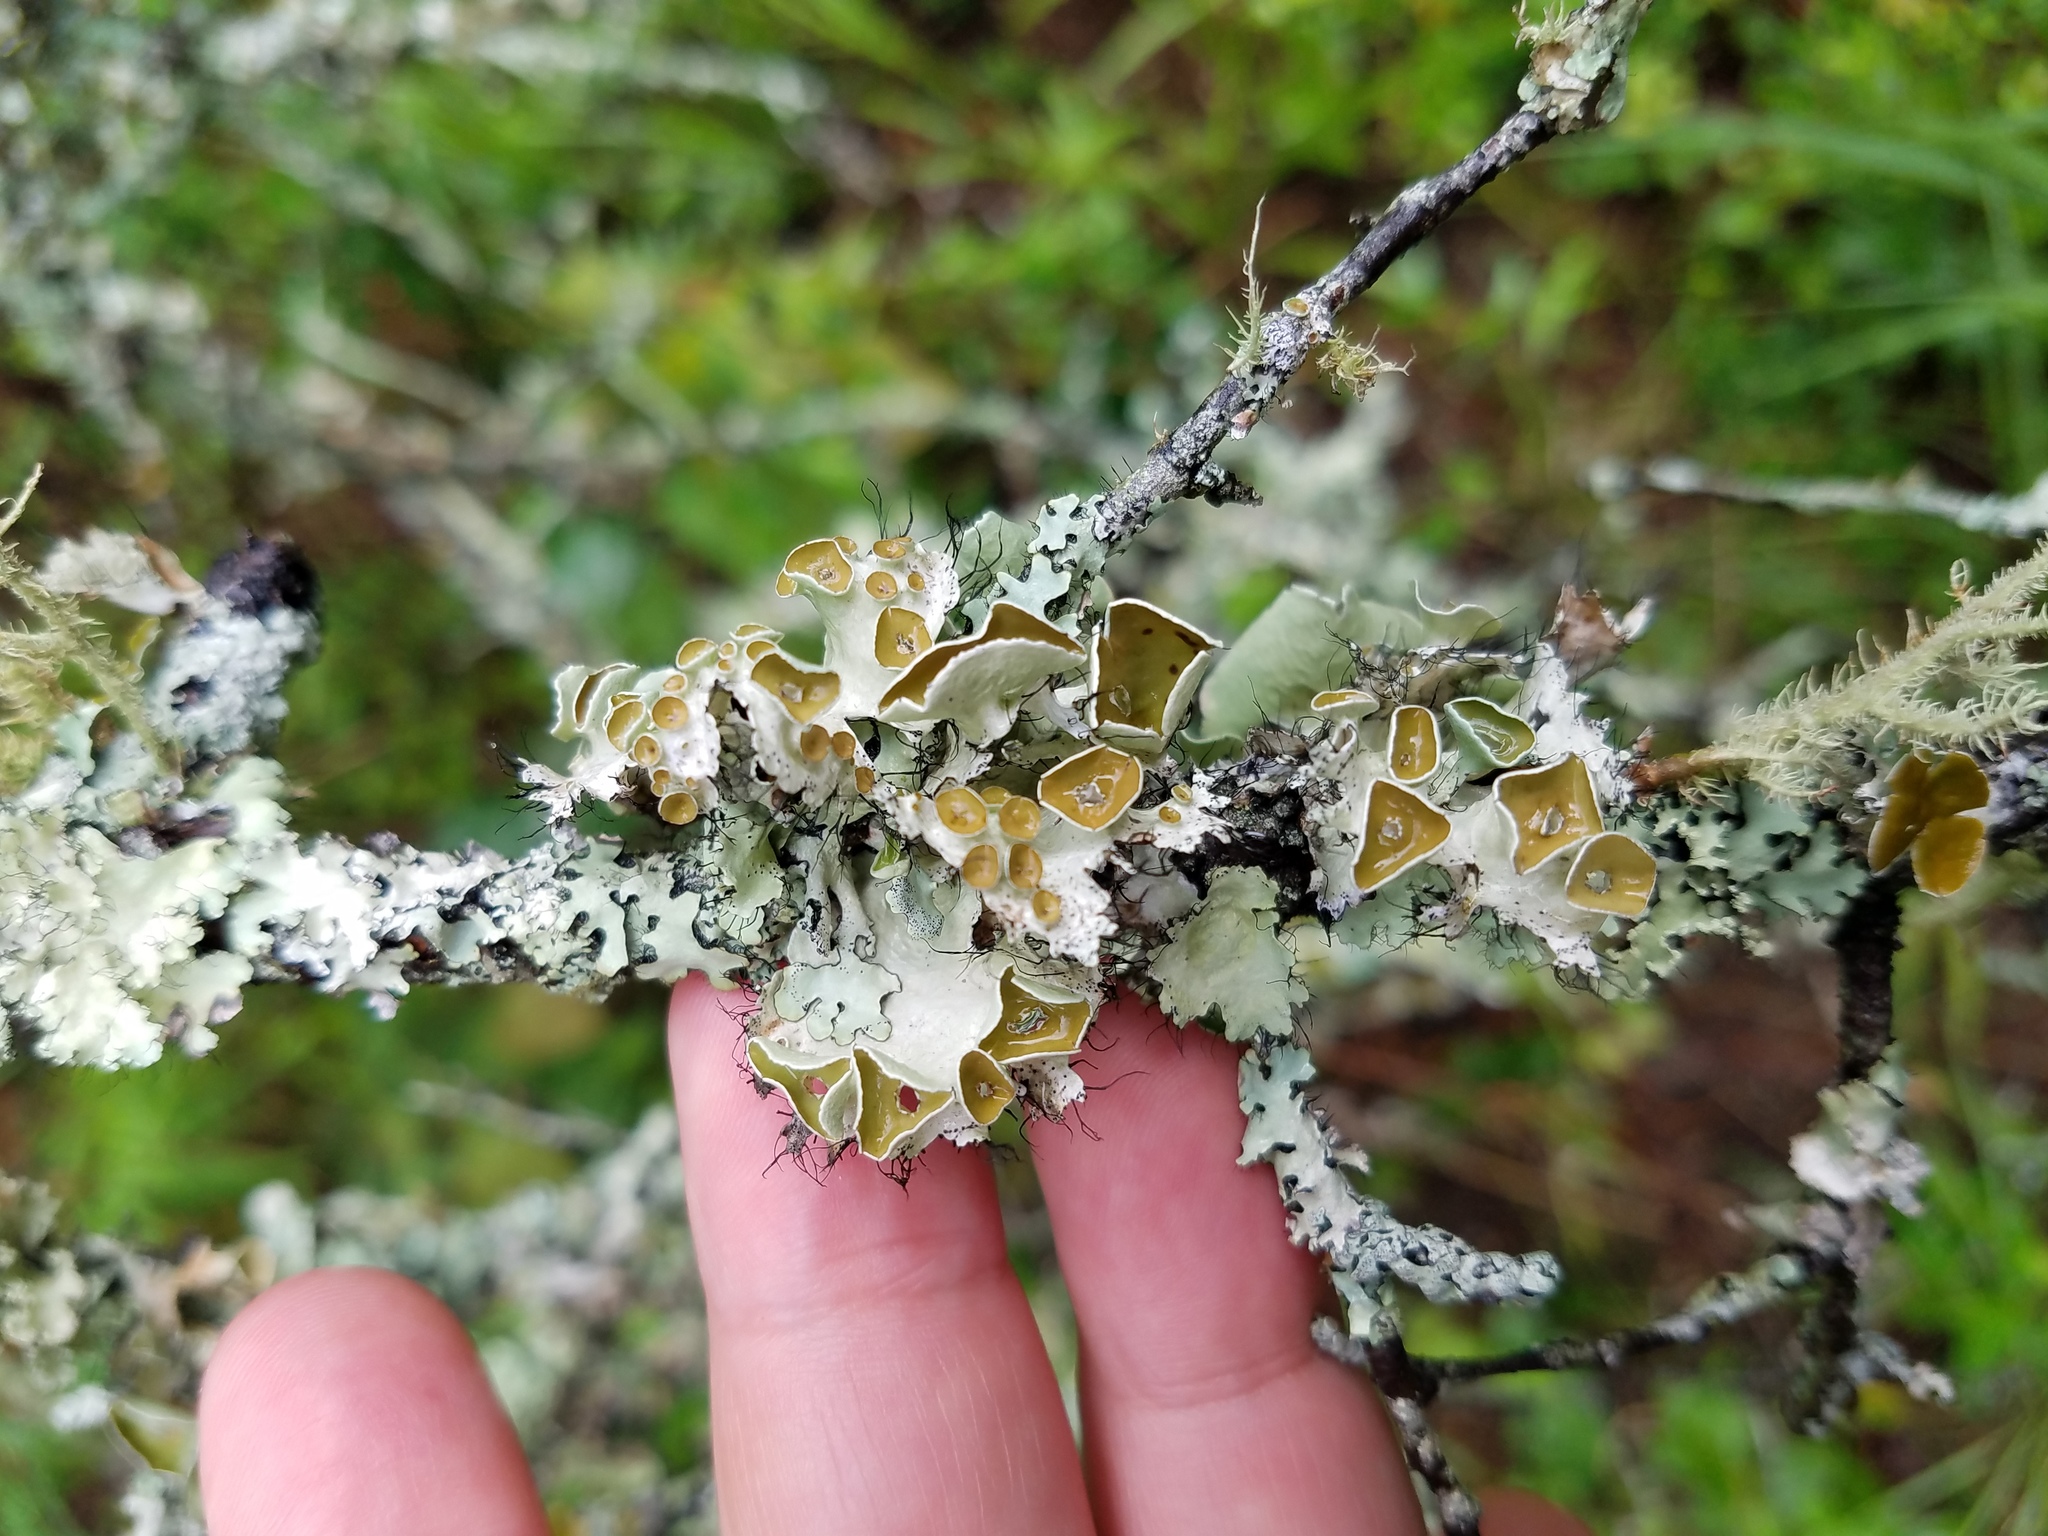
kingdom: Fungi
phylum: Ascomycota
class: Lecanoromycetes
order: Lecanorales
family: Parmeliaceae
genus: Parmotrema
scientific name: Parmotrema perforatum
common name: Perforated ruffle lichen
